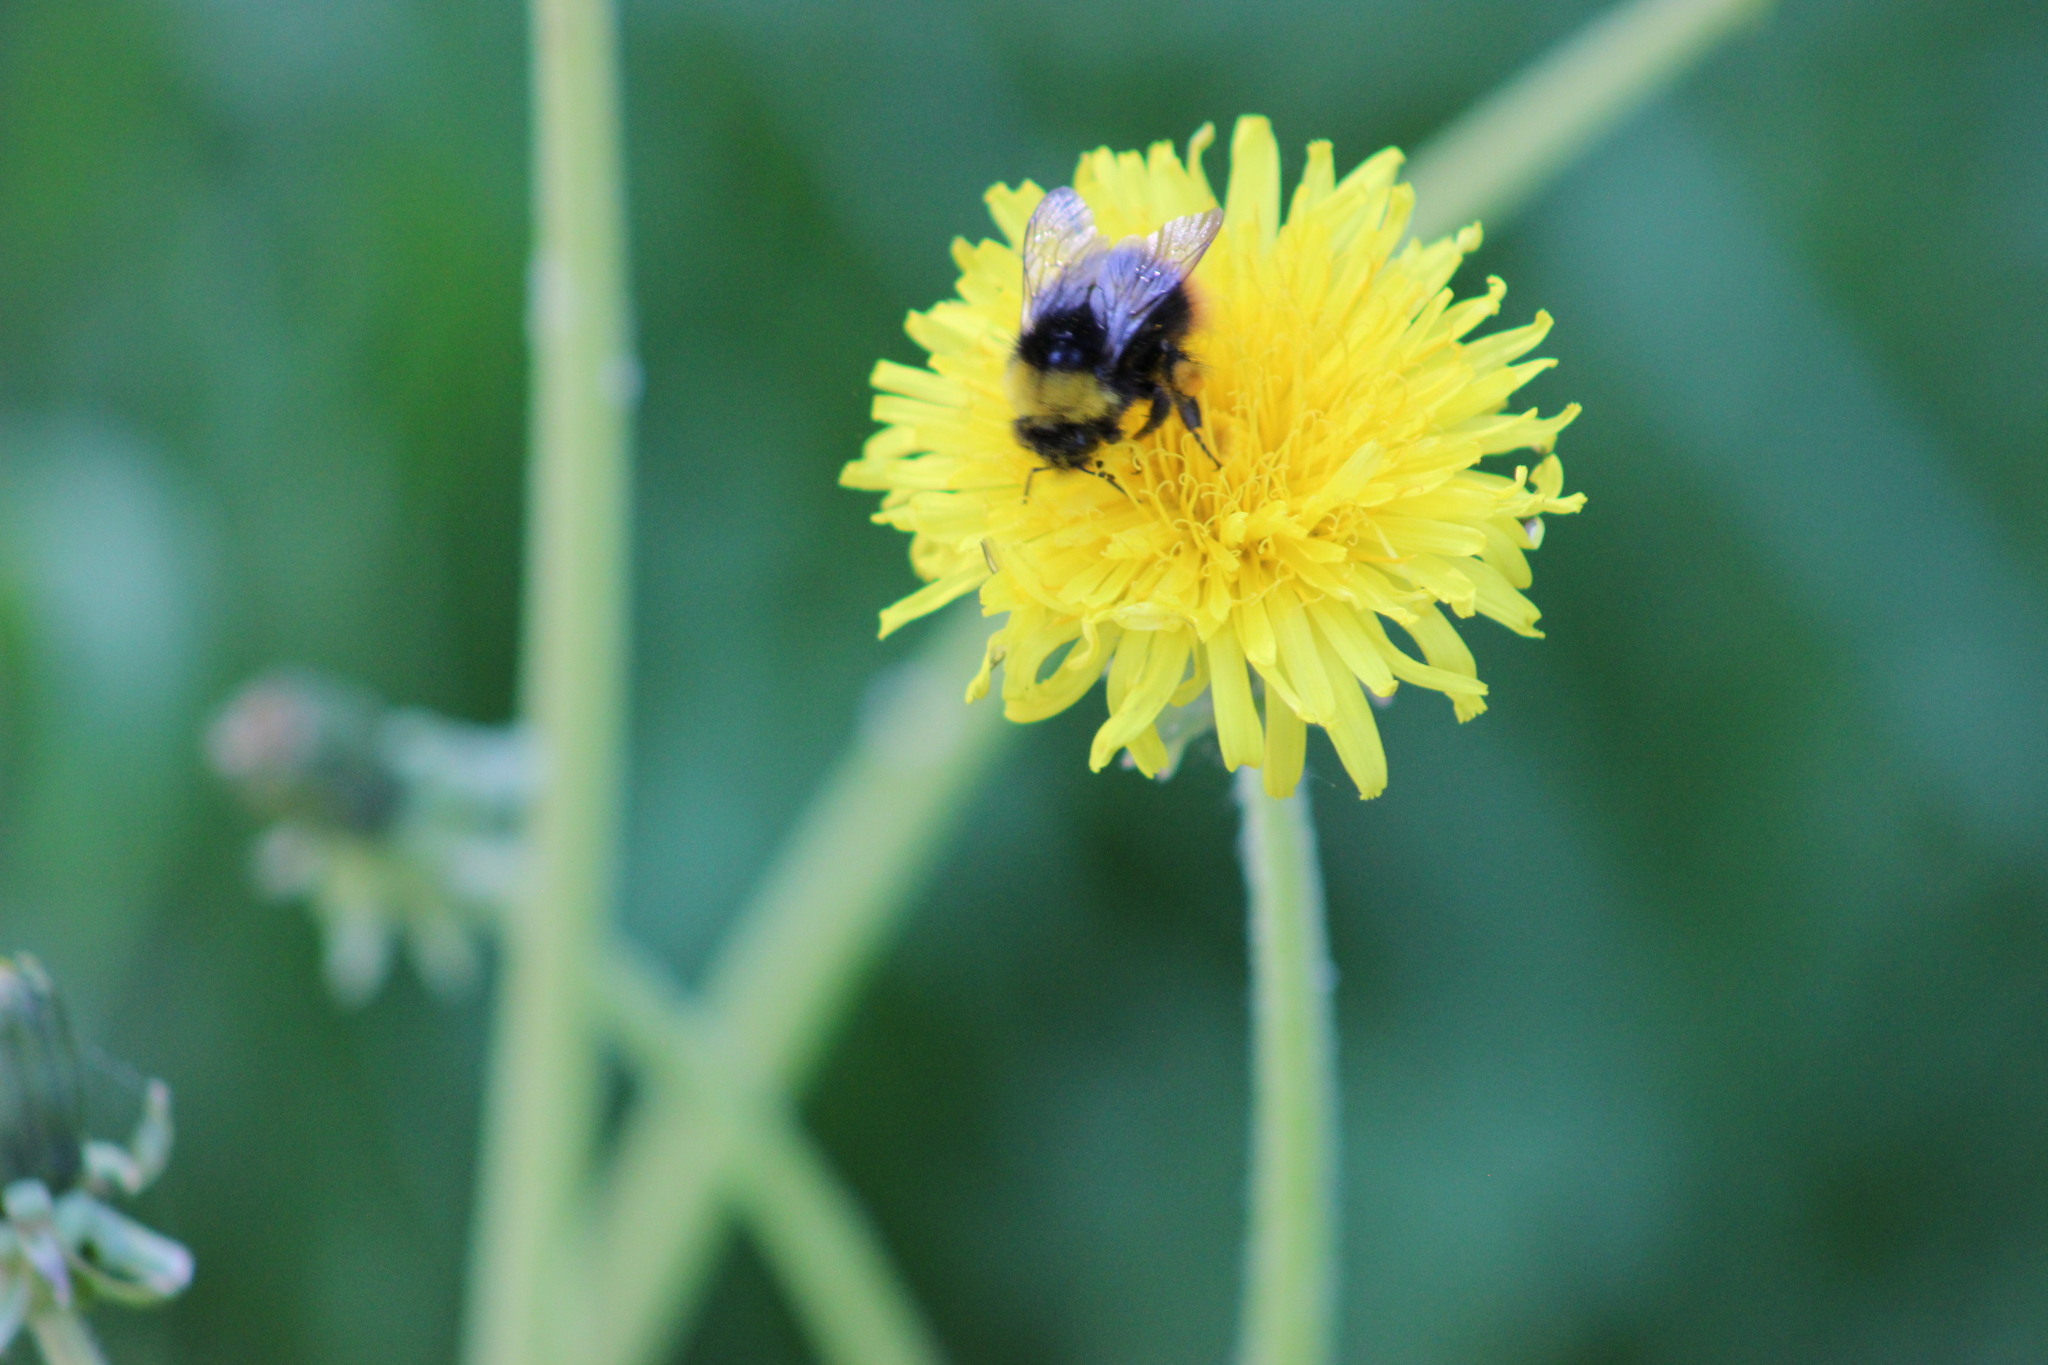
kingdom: Animalia
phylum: Arthropoda
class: Insecta
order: Hymenoptera
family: Apidae
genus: Bombus
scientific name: Bombus pratorum
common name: Early humble-bee
